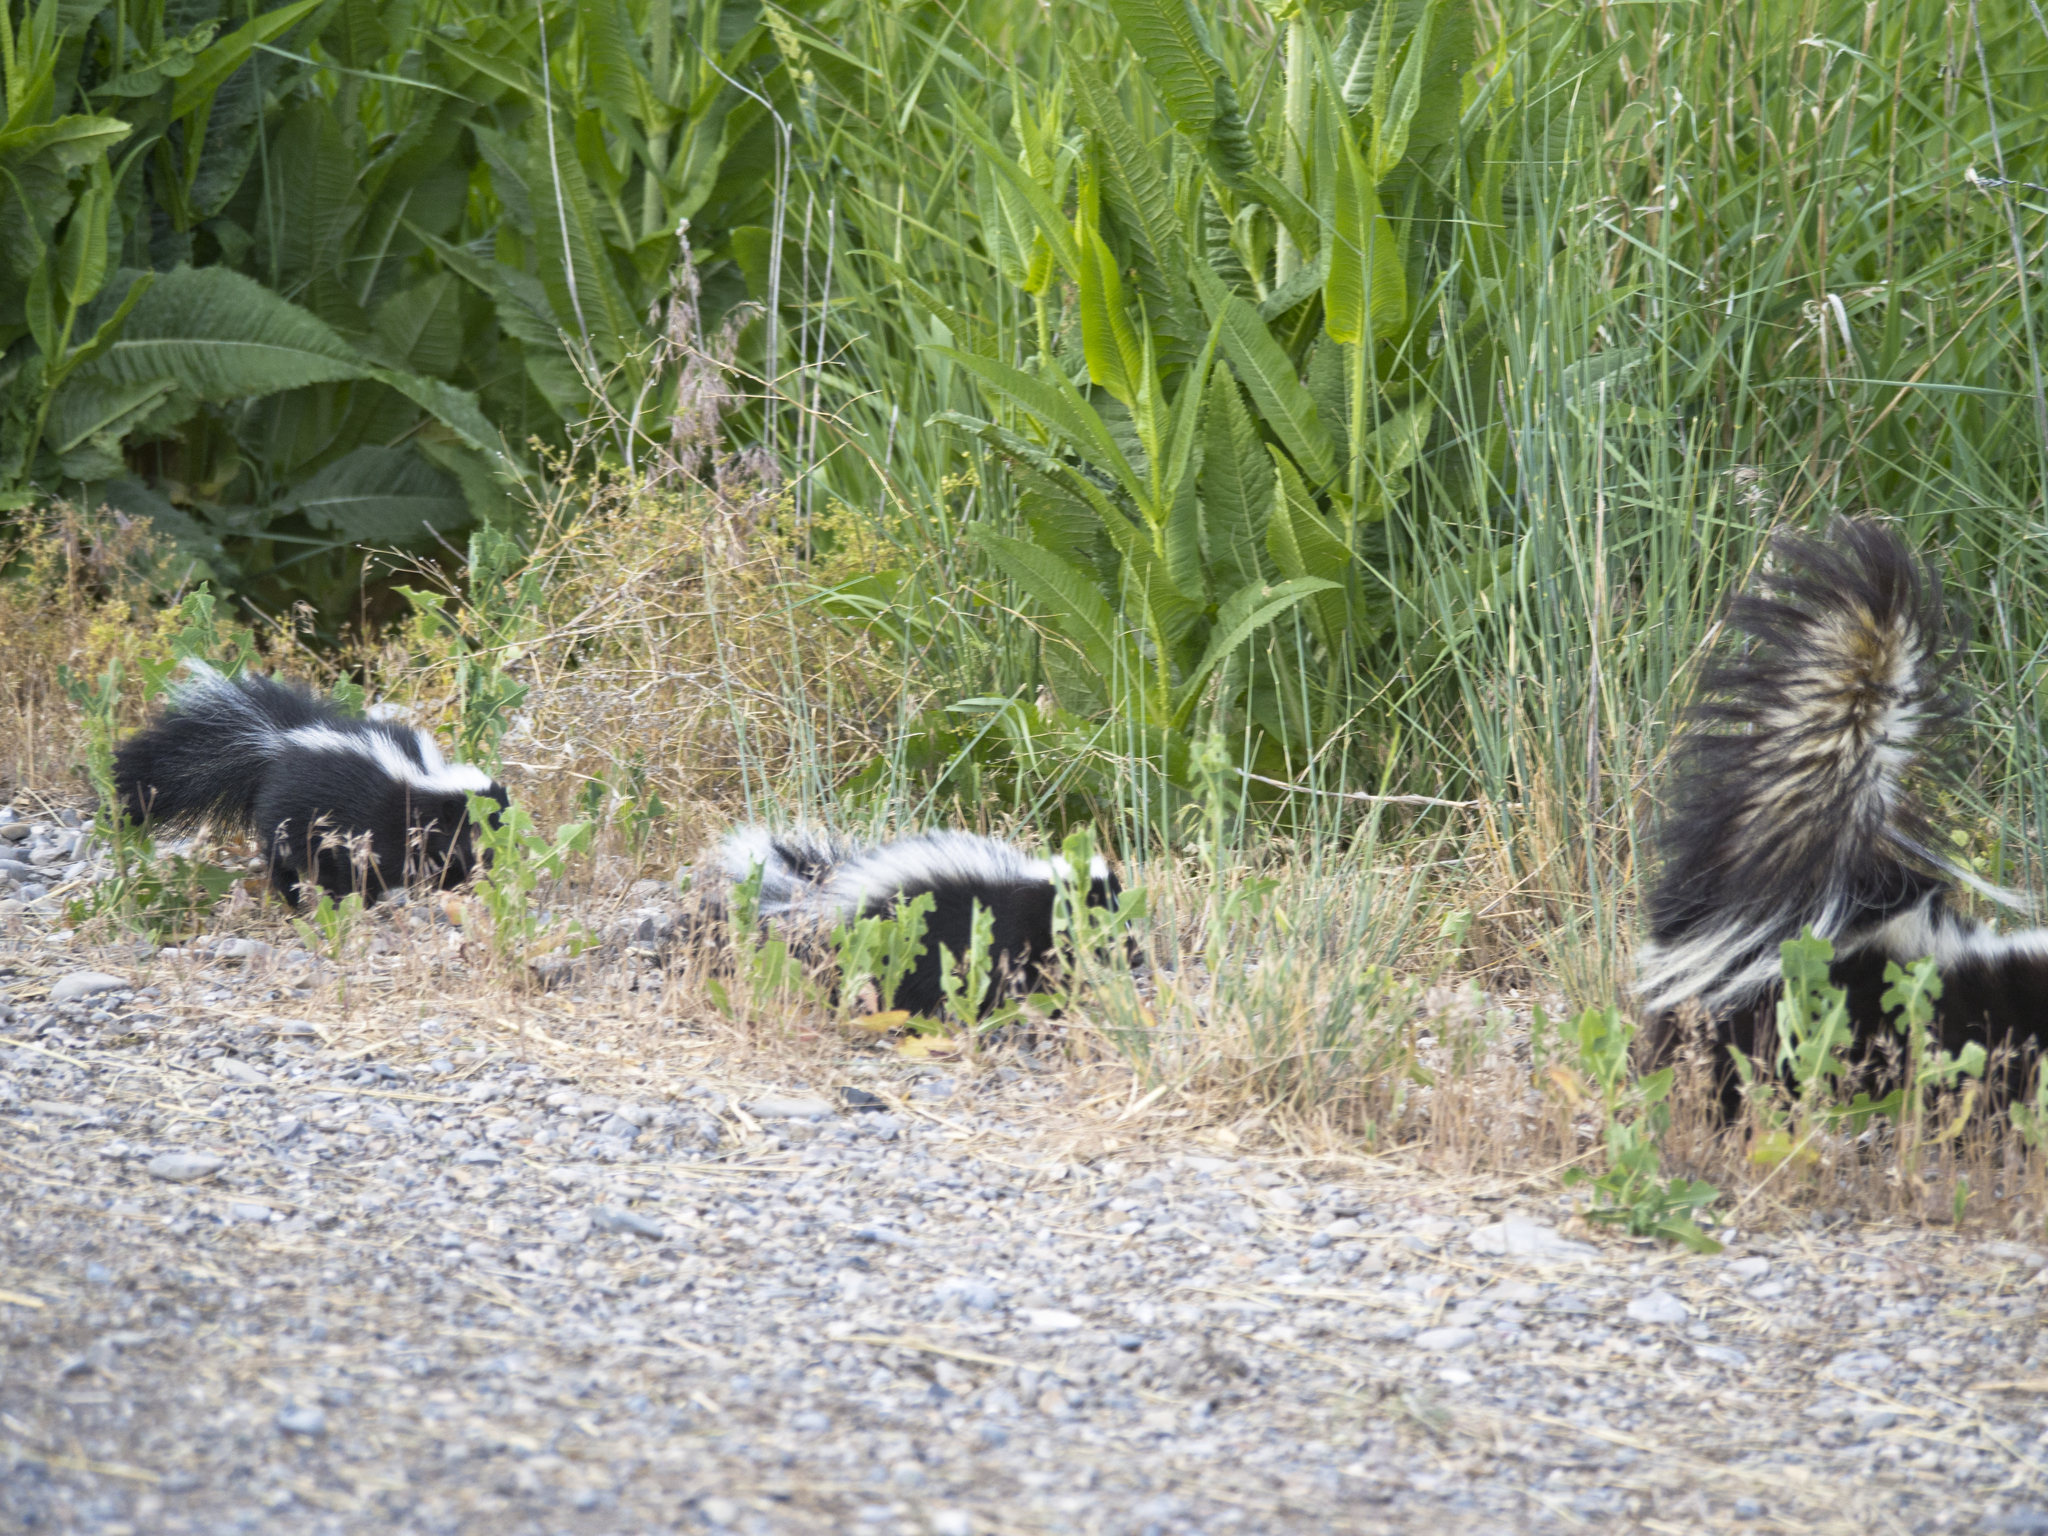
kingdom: Animalia
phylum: Chordata
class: Mammalia
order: Carnivora
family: Mephitidae
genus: Mephitis
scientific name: Mephitis mephitis
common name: Striped skunk
